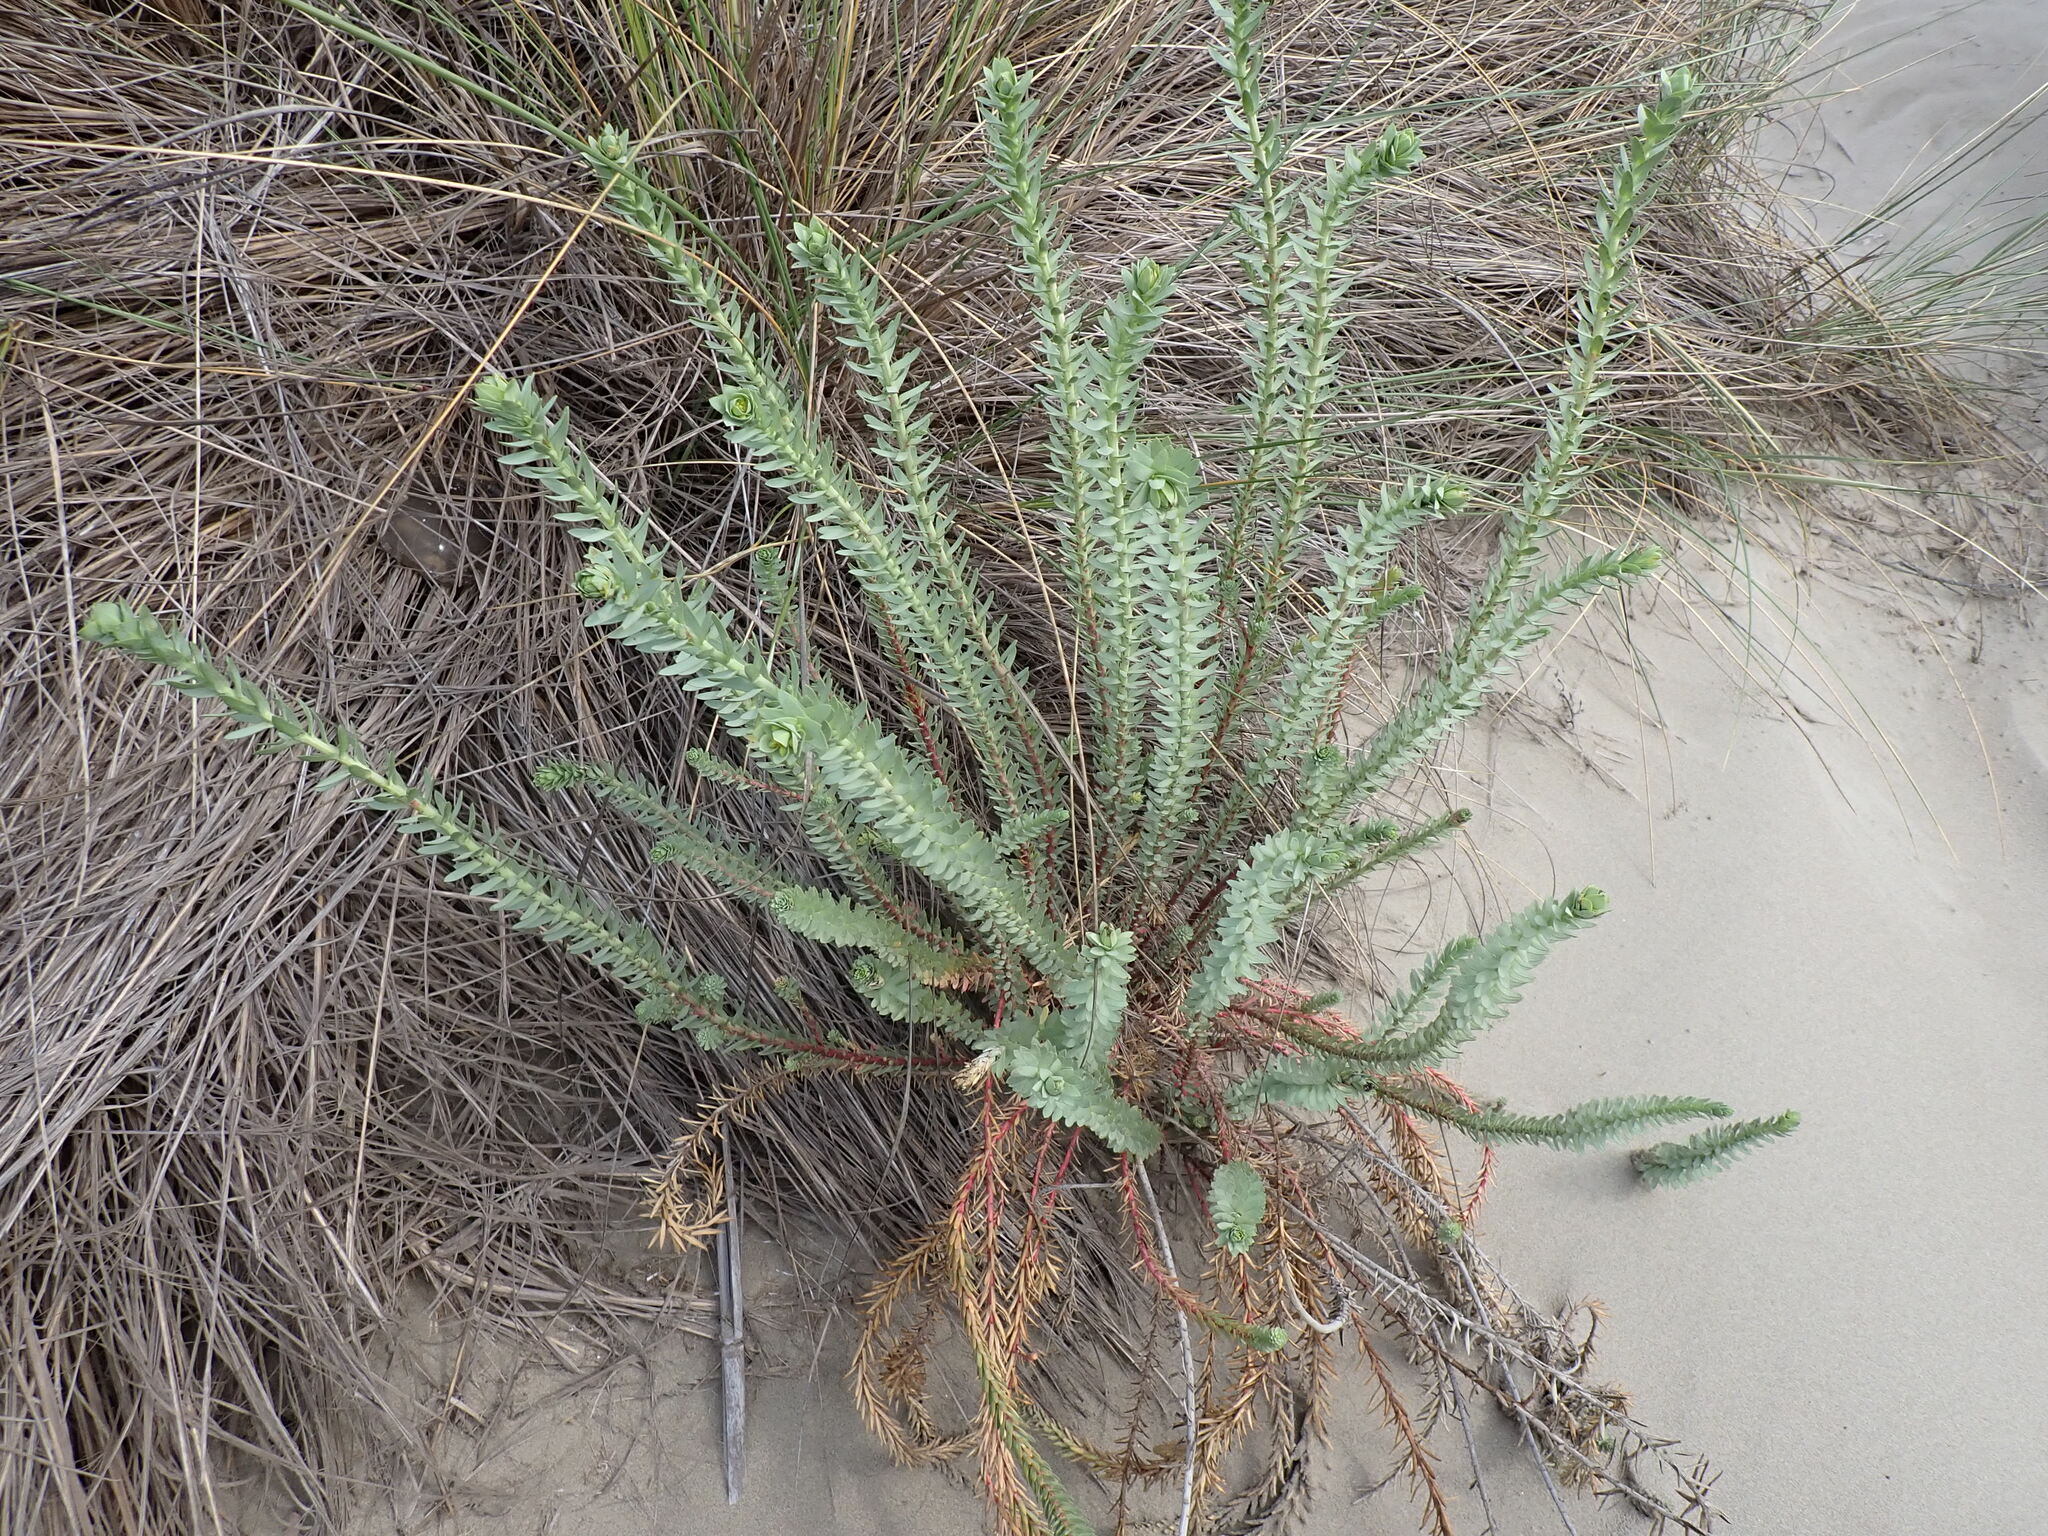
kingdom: Plantae
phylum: Tracheophyta
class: Magnoliopsida
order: Malpighiales
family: Euphorbiaceae
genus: Euphorbia
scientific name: Euphorbia paralias
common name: Sea spurge
